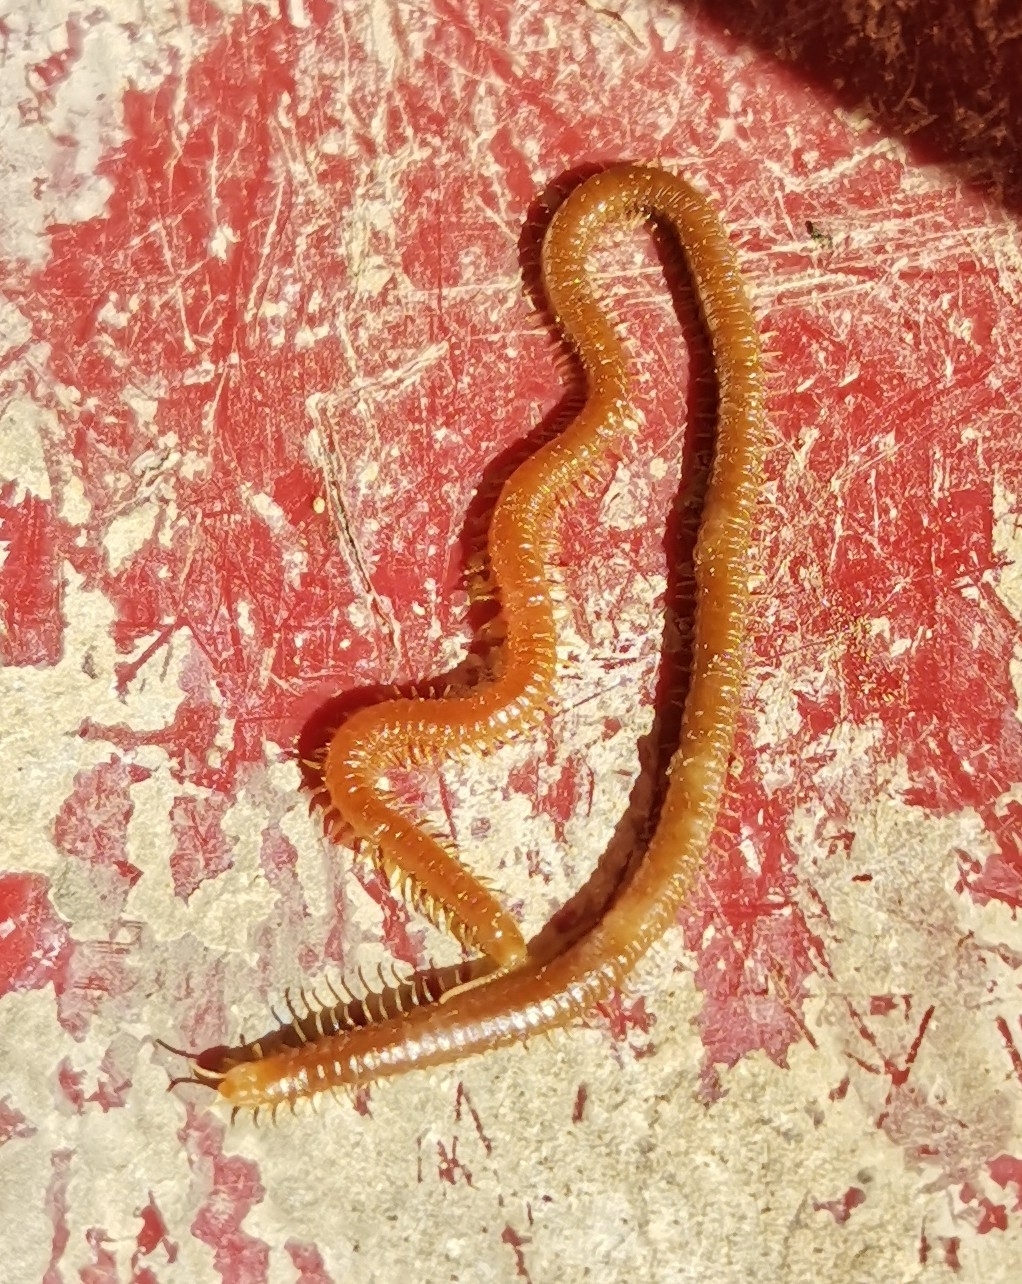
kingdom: Animalia
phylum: Arthropoda
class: Chilopoda
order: Geophilomorpha
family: Himantariidae
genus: Himantarium
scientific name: Himantarium gabrielis
